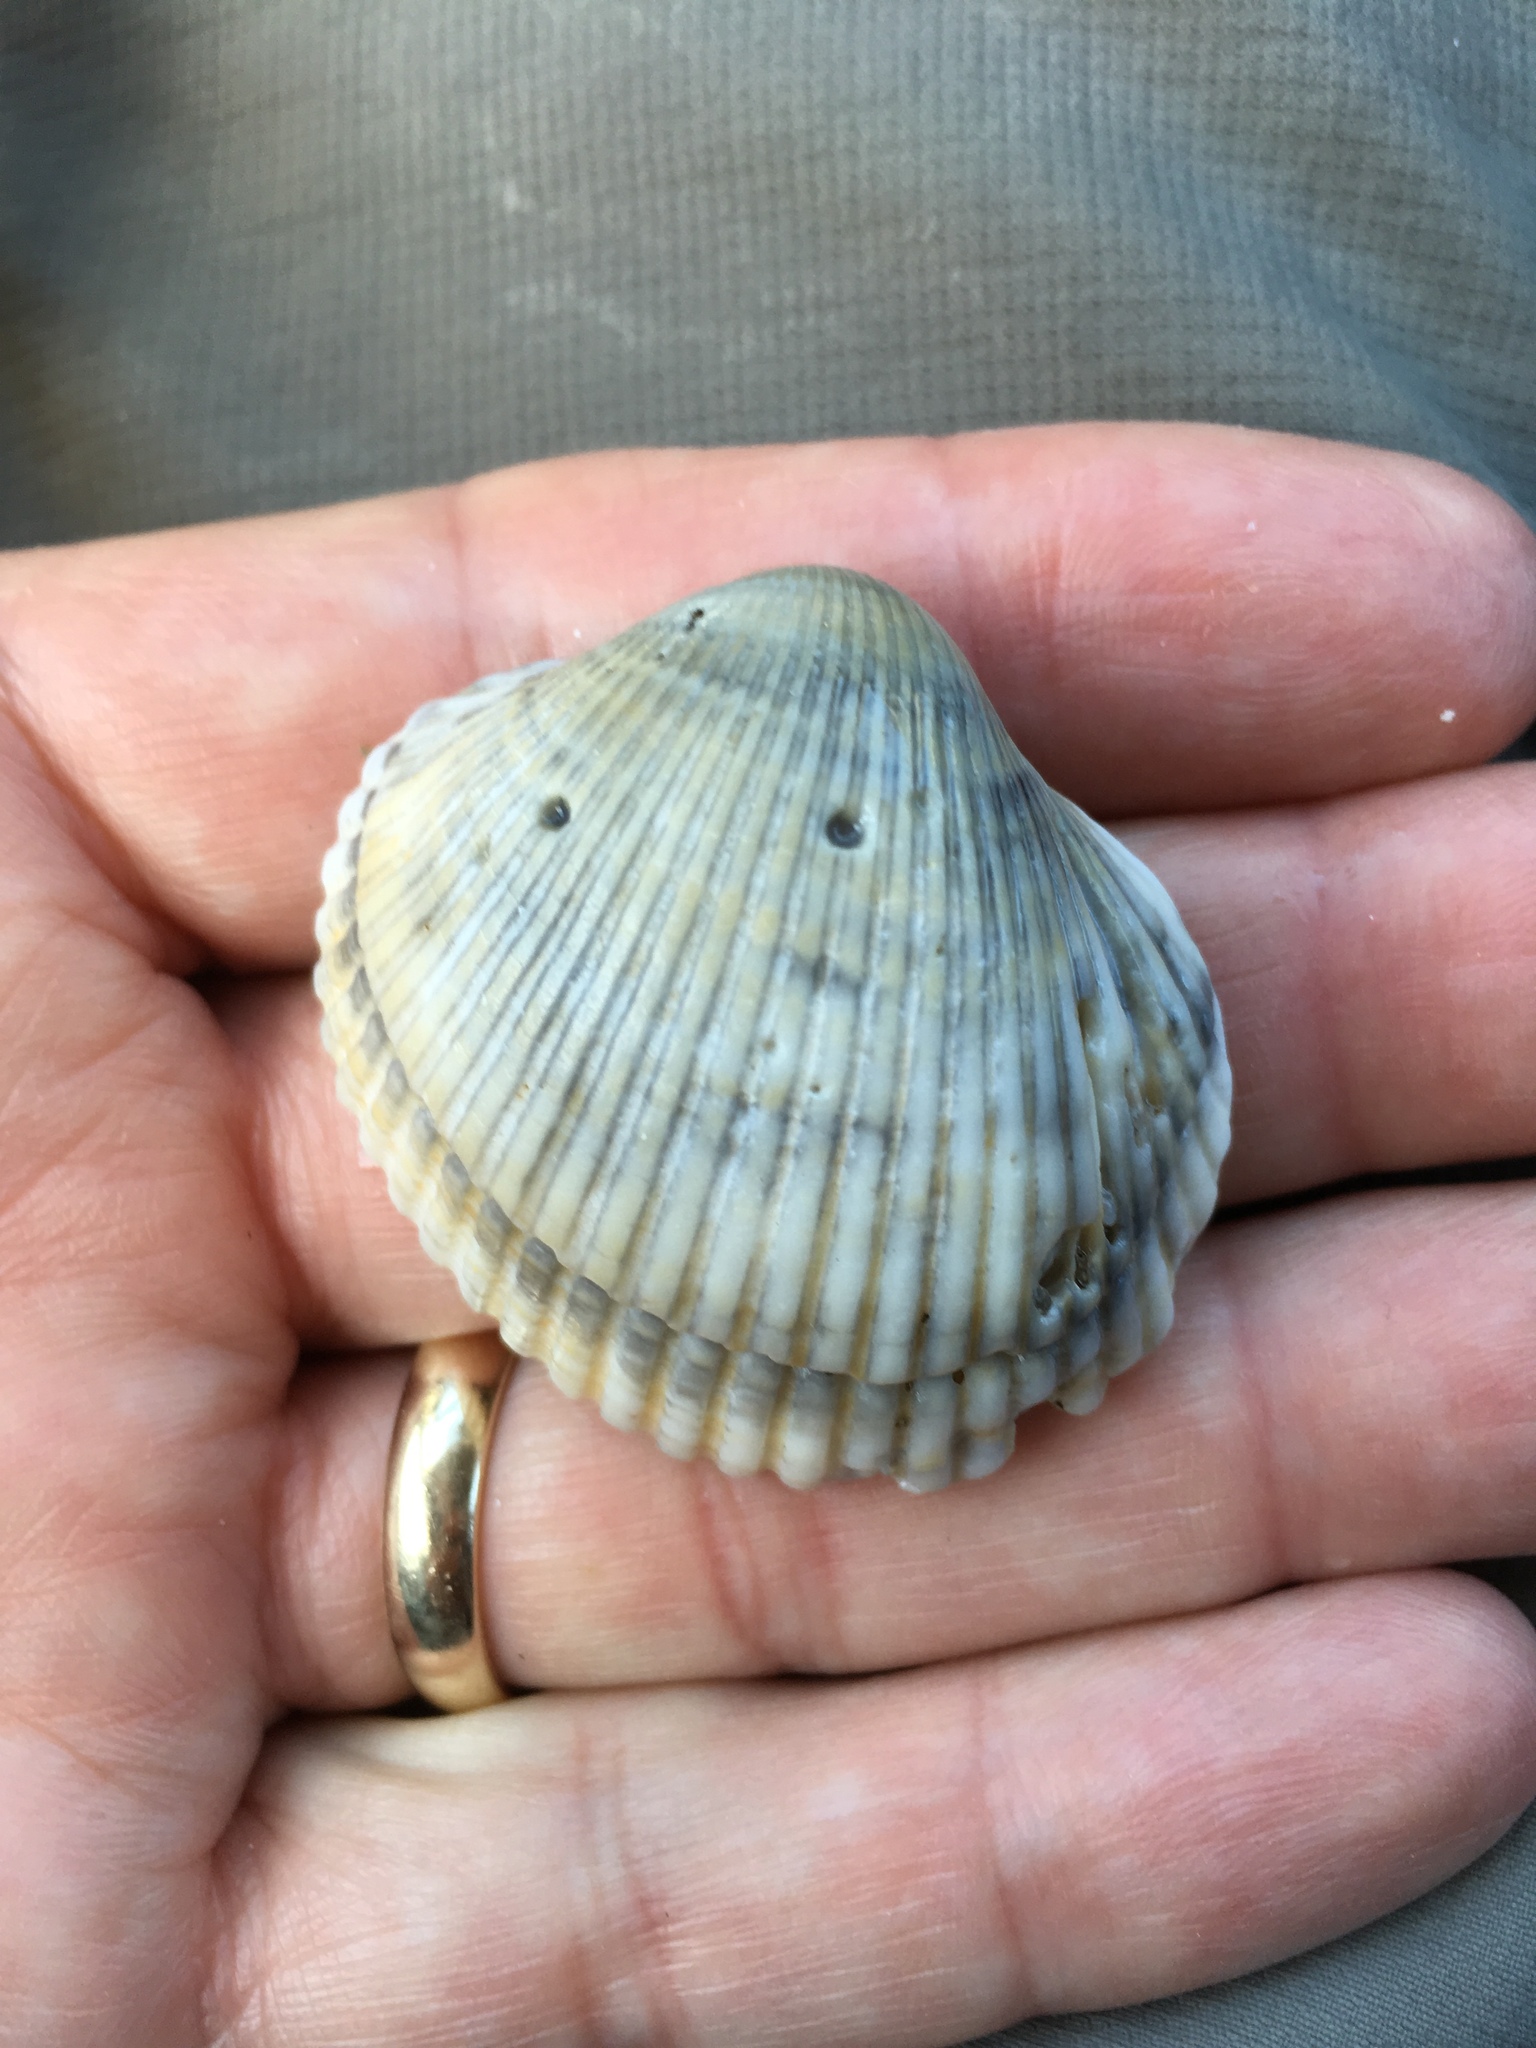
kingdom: Animalia
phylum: Mollusca
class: Bivalvia
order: Arcida
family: Arcidae
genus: Lunarca
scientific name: Lunarca ovalis
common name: Blood ark
